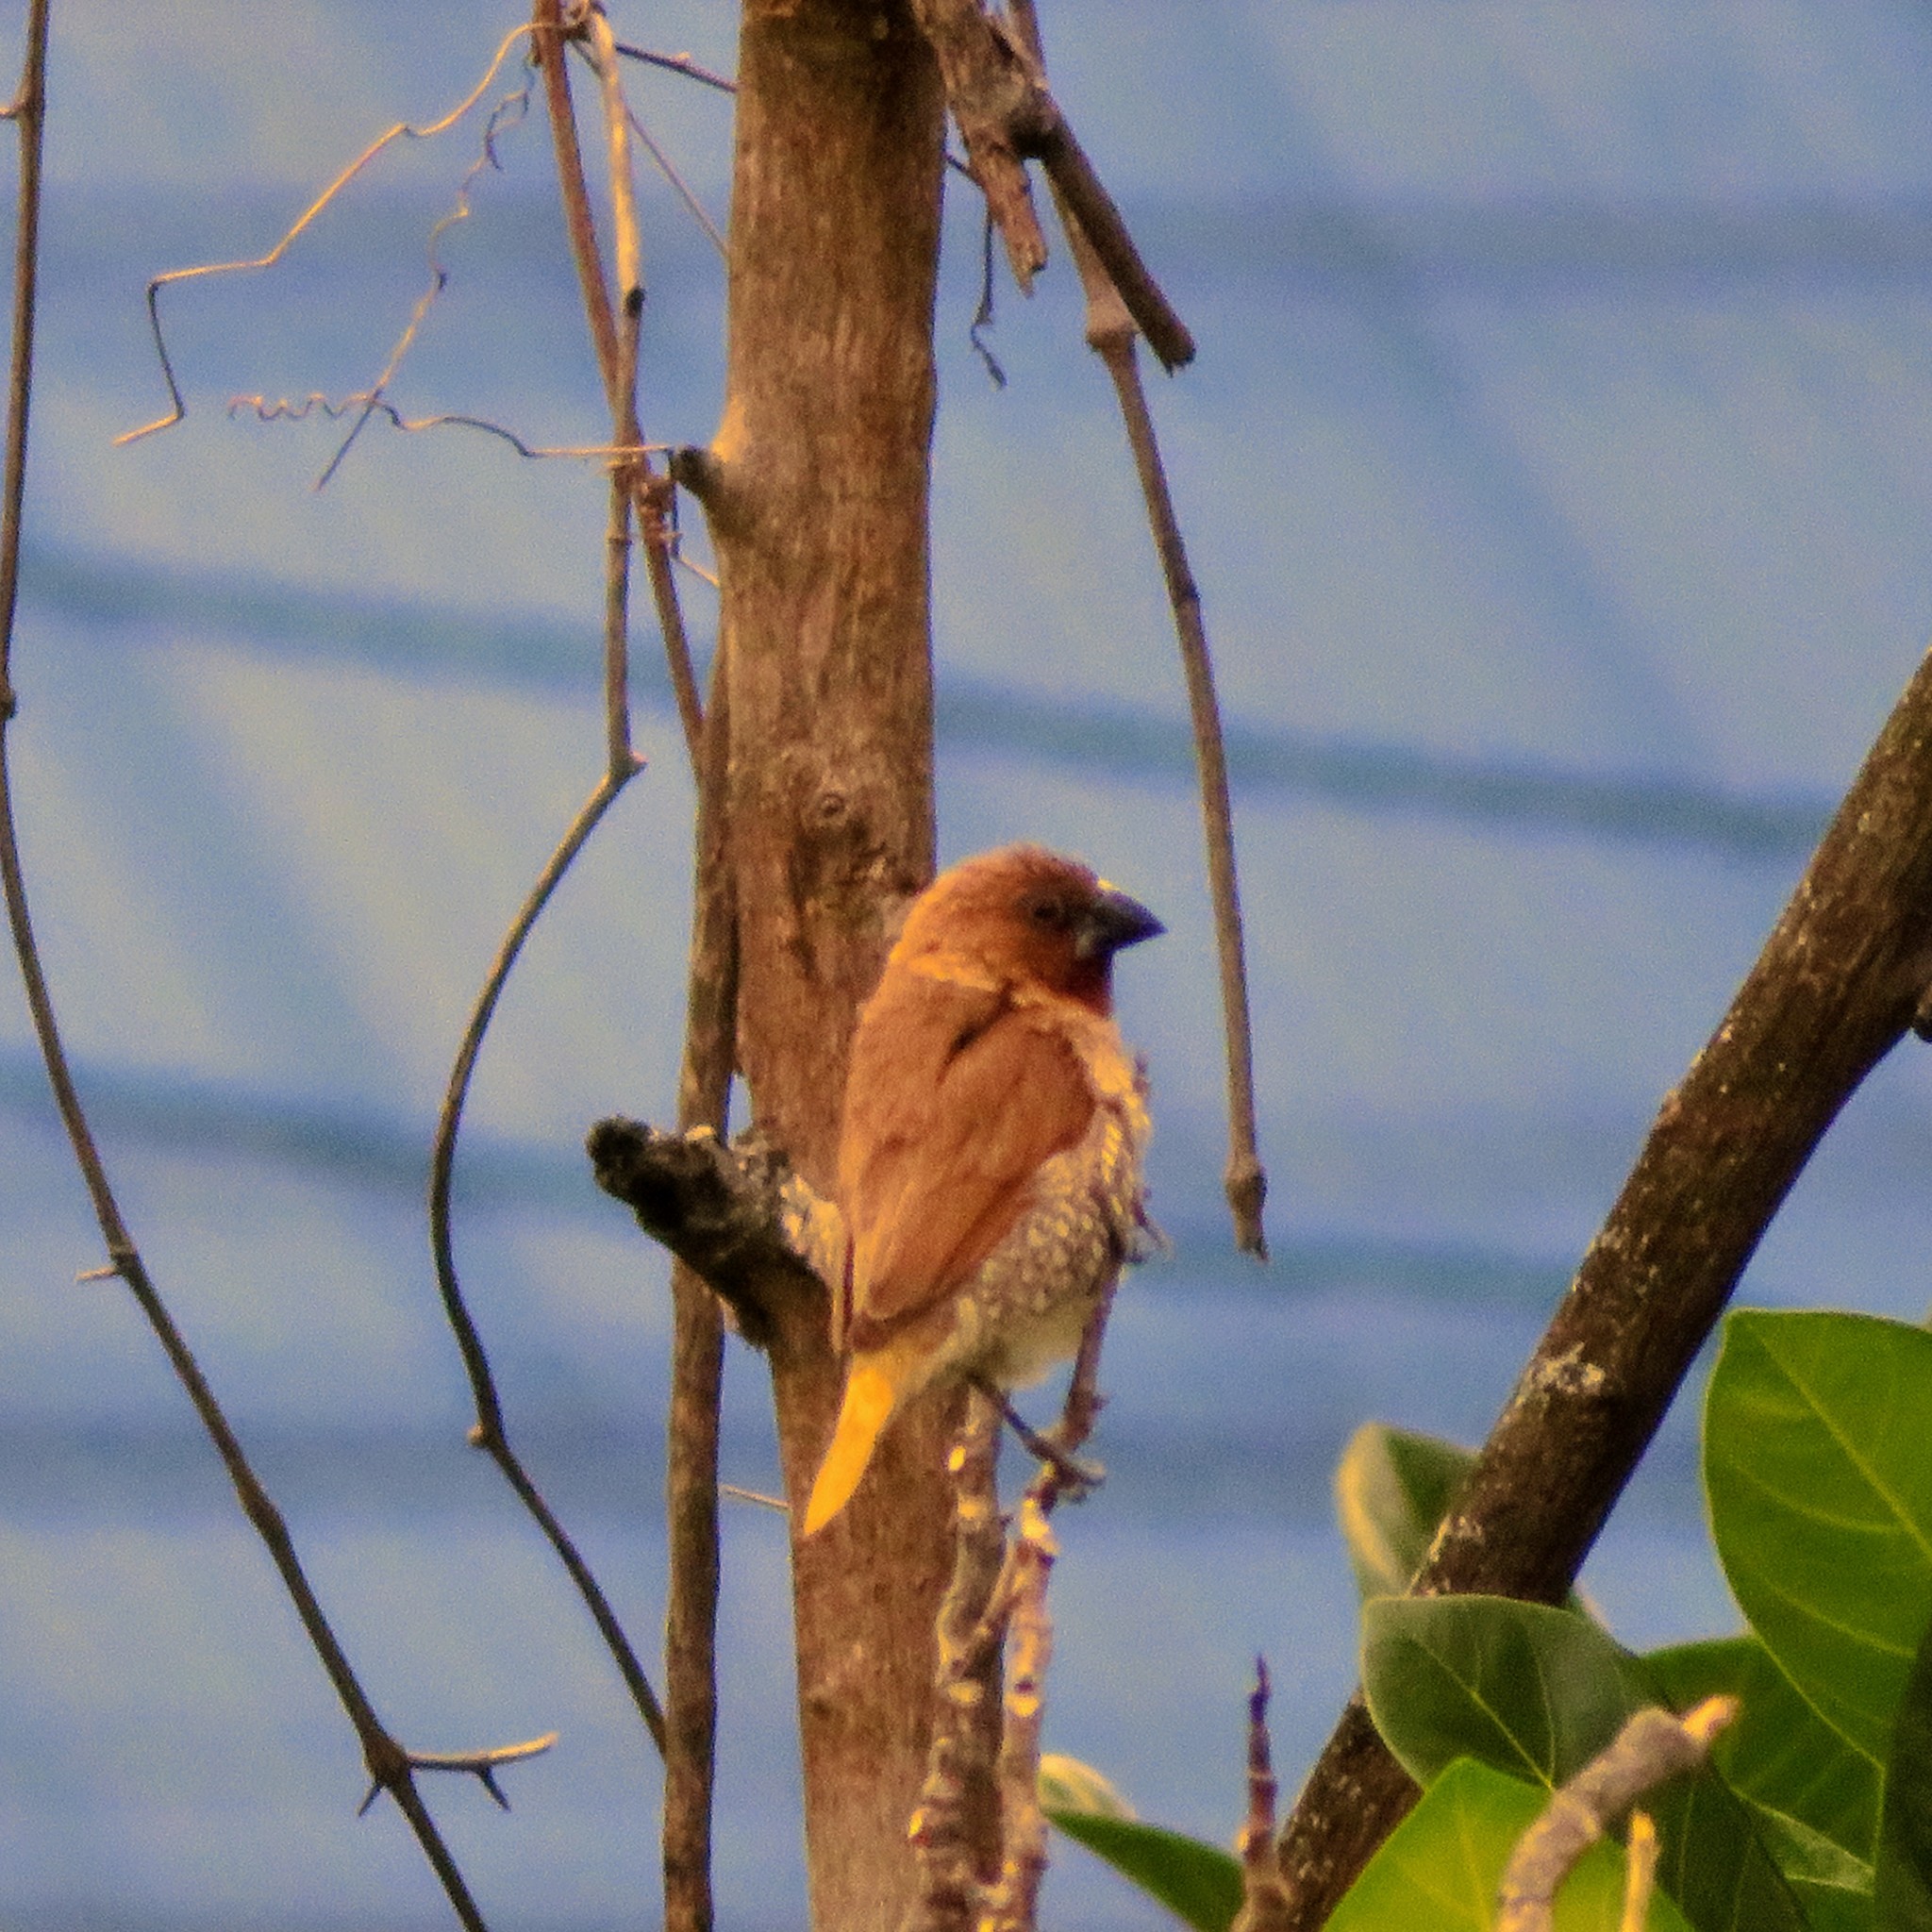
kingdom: Animalia
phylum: Chordata
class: Aves
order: Passeriformes
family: Estrildidae
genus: Lonchura
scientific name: Lonchura punctulata
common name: Scaly-breasted munia
